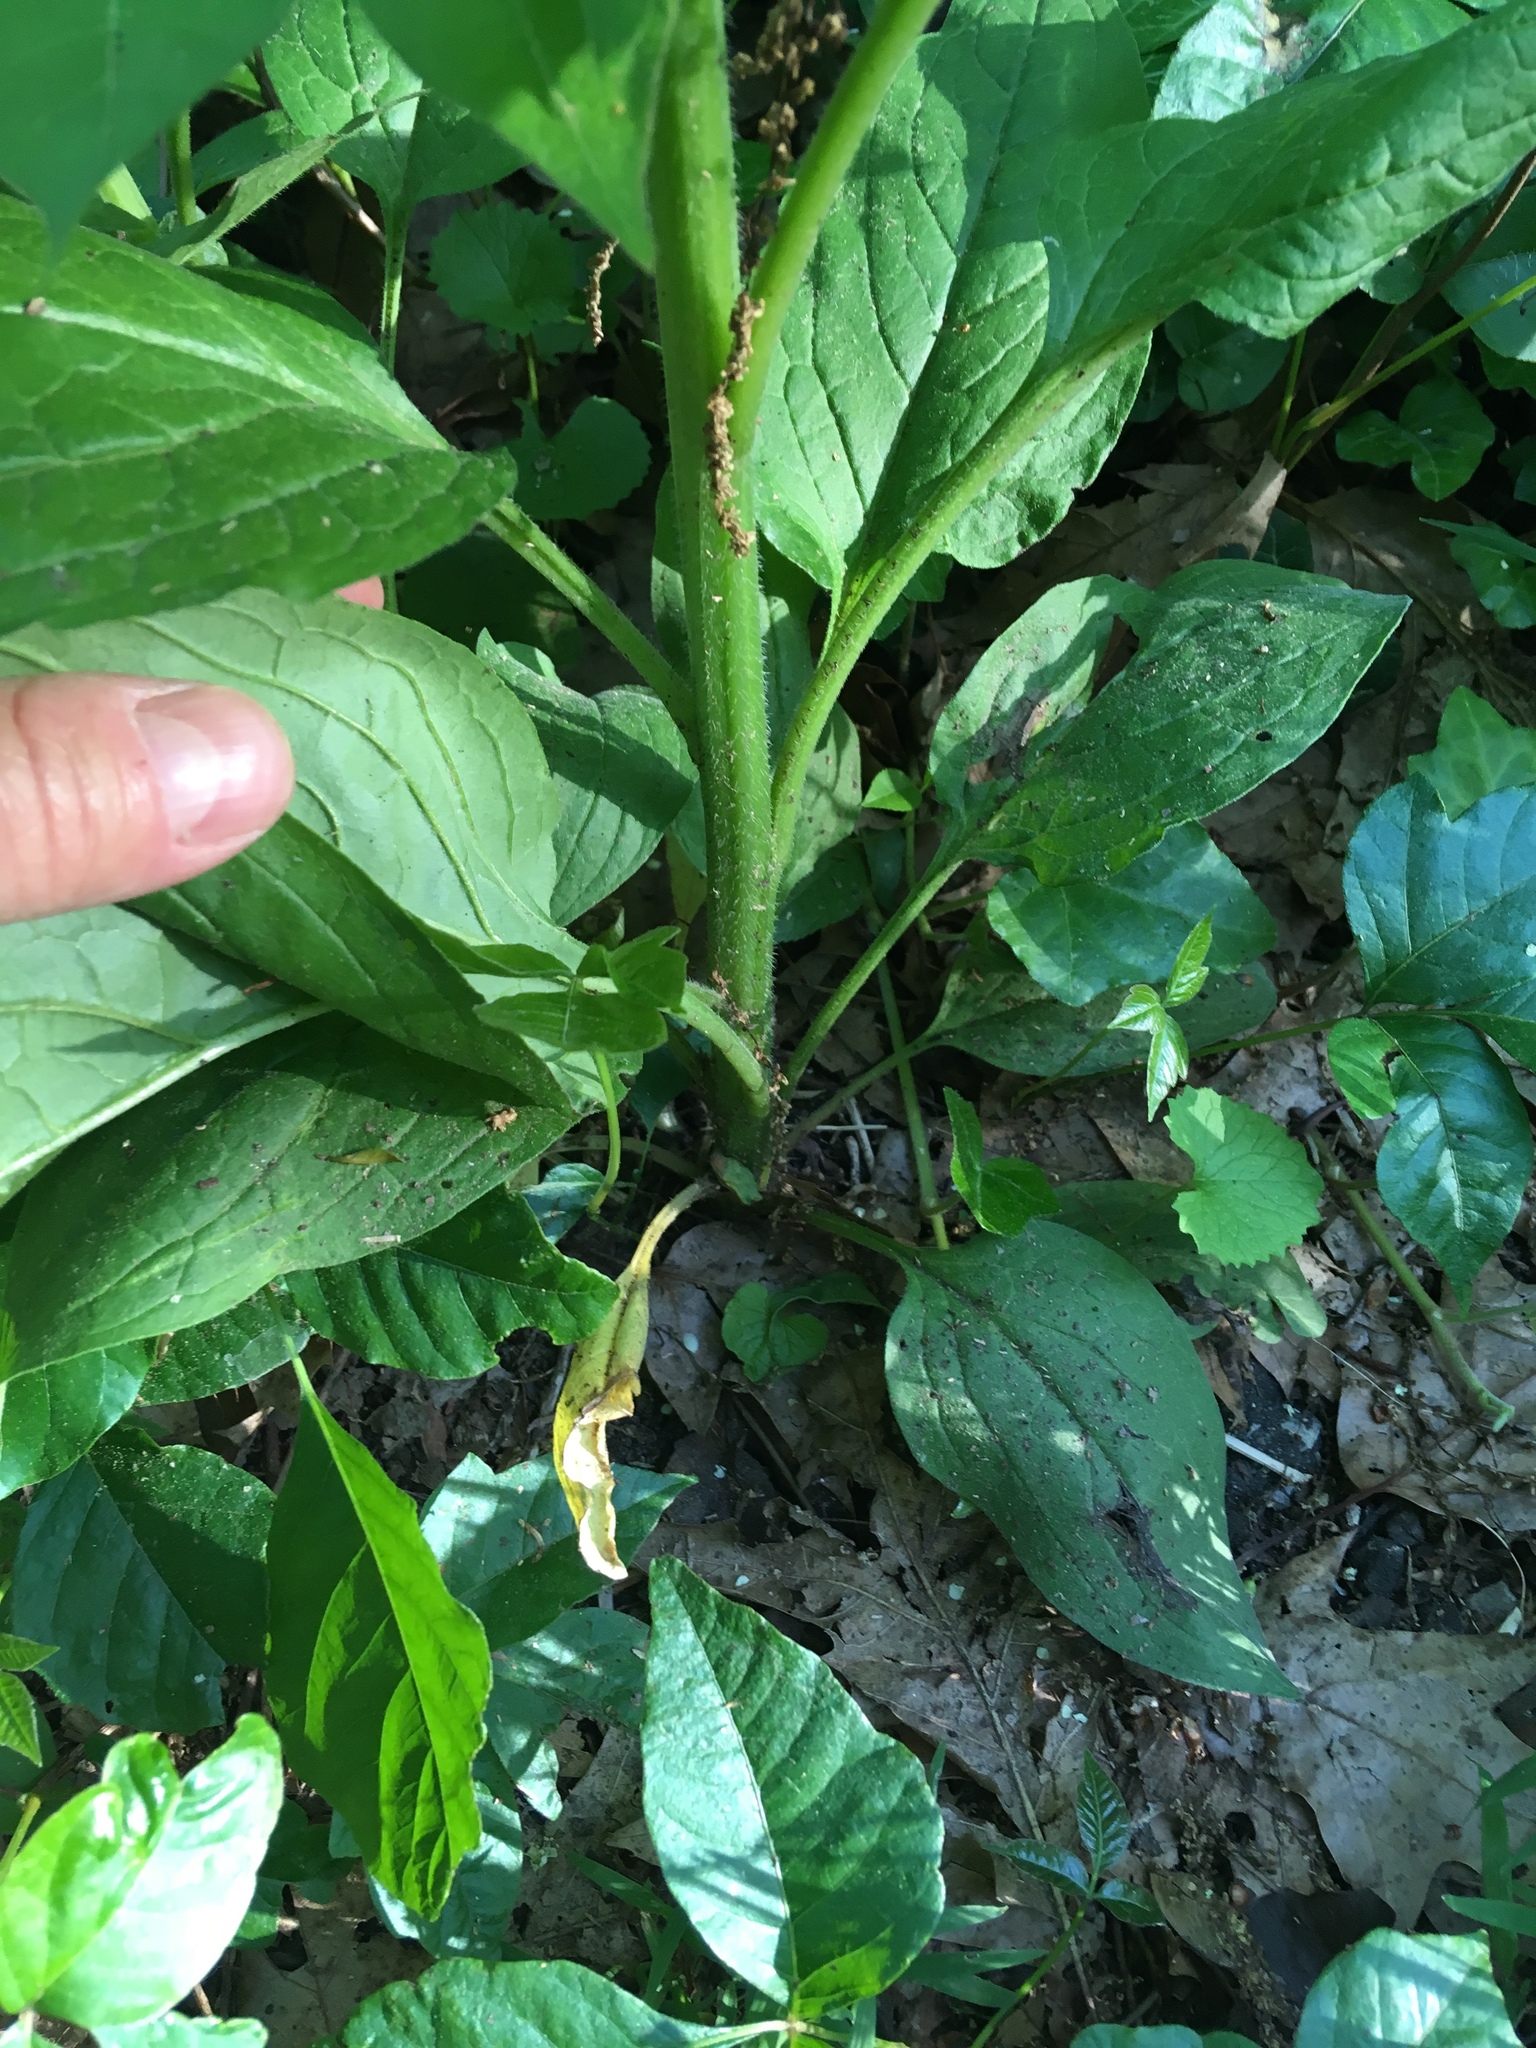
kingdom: Plantae
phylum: Tracheophyta
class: Magnoliopsida
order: Boraginales
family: Boraginaceae
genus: Hackelia
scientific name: Hackelia virginiana
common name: Beggar's-lice
